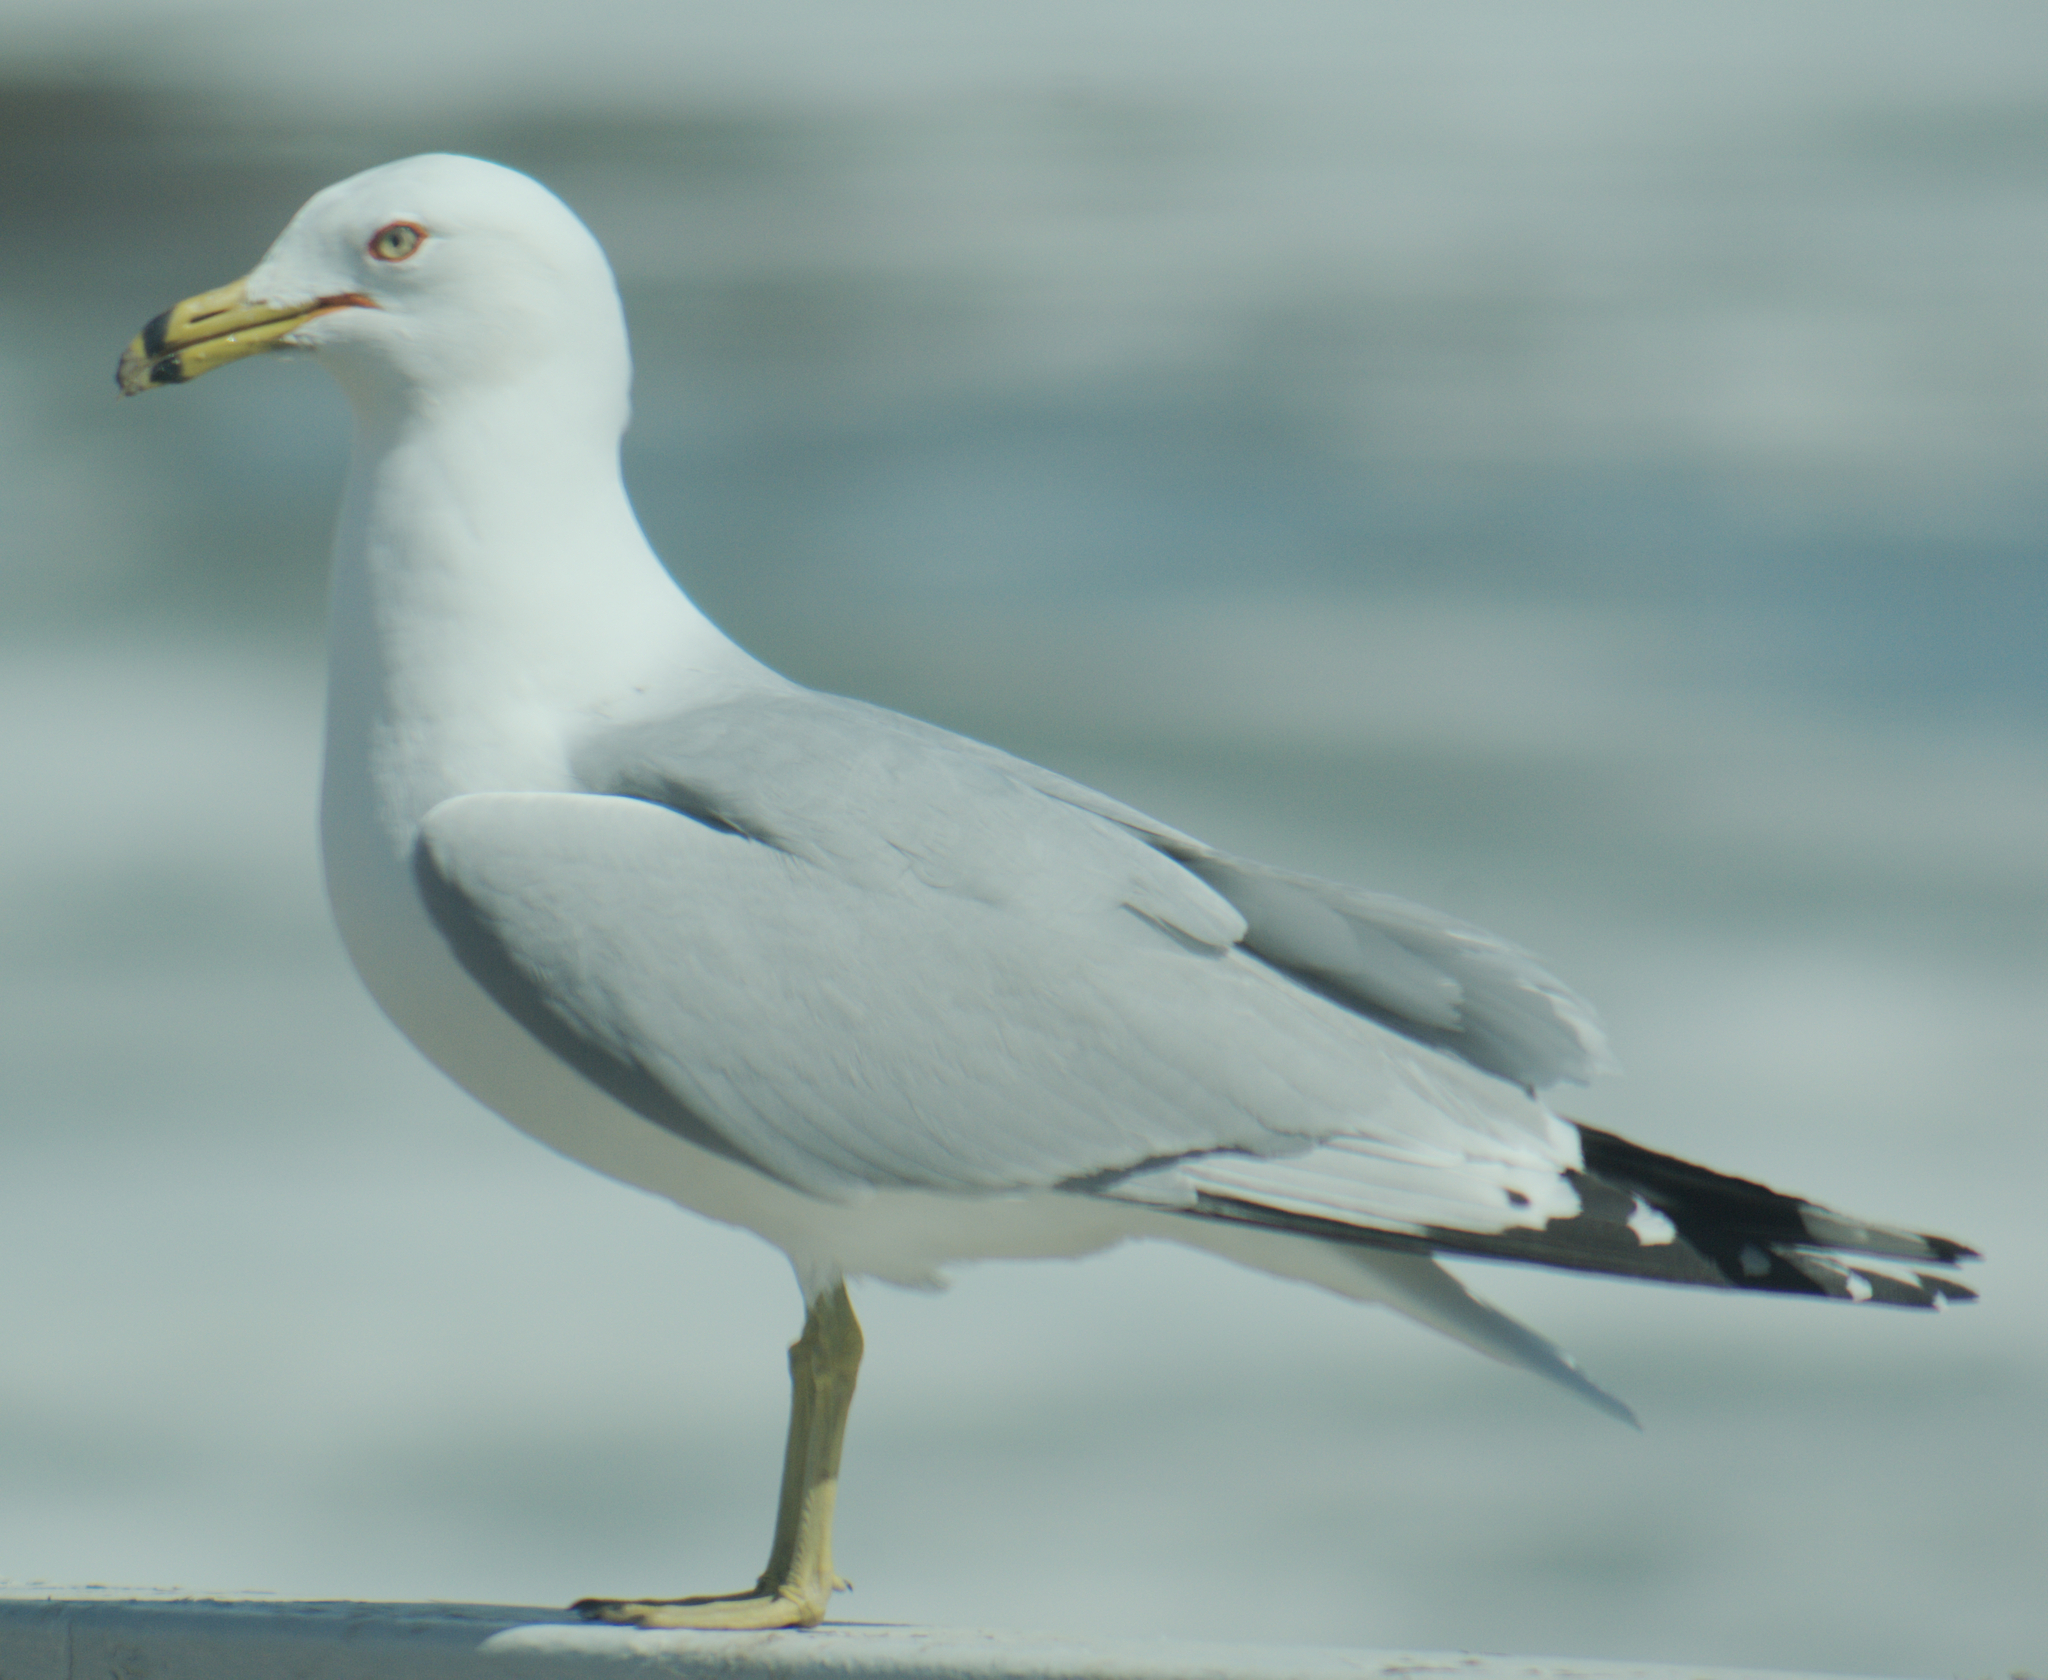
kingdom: Animalia
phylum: Chordata
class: Aves
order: Charadriiformes
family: Laridae
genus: Larus
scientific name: Larus delawarensis
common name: Ring-billed gull
